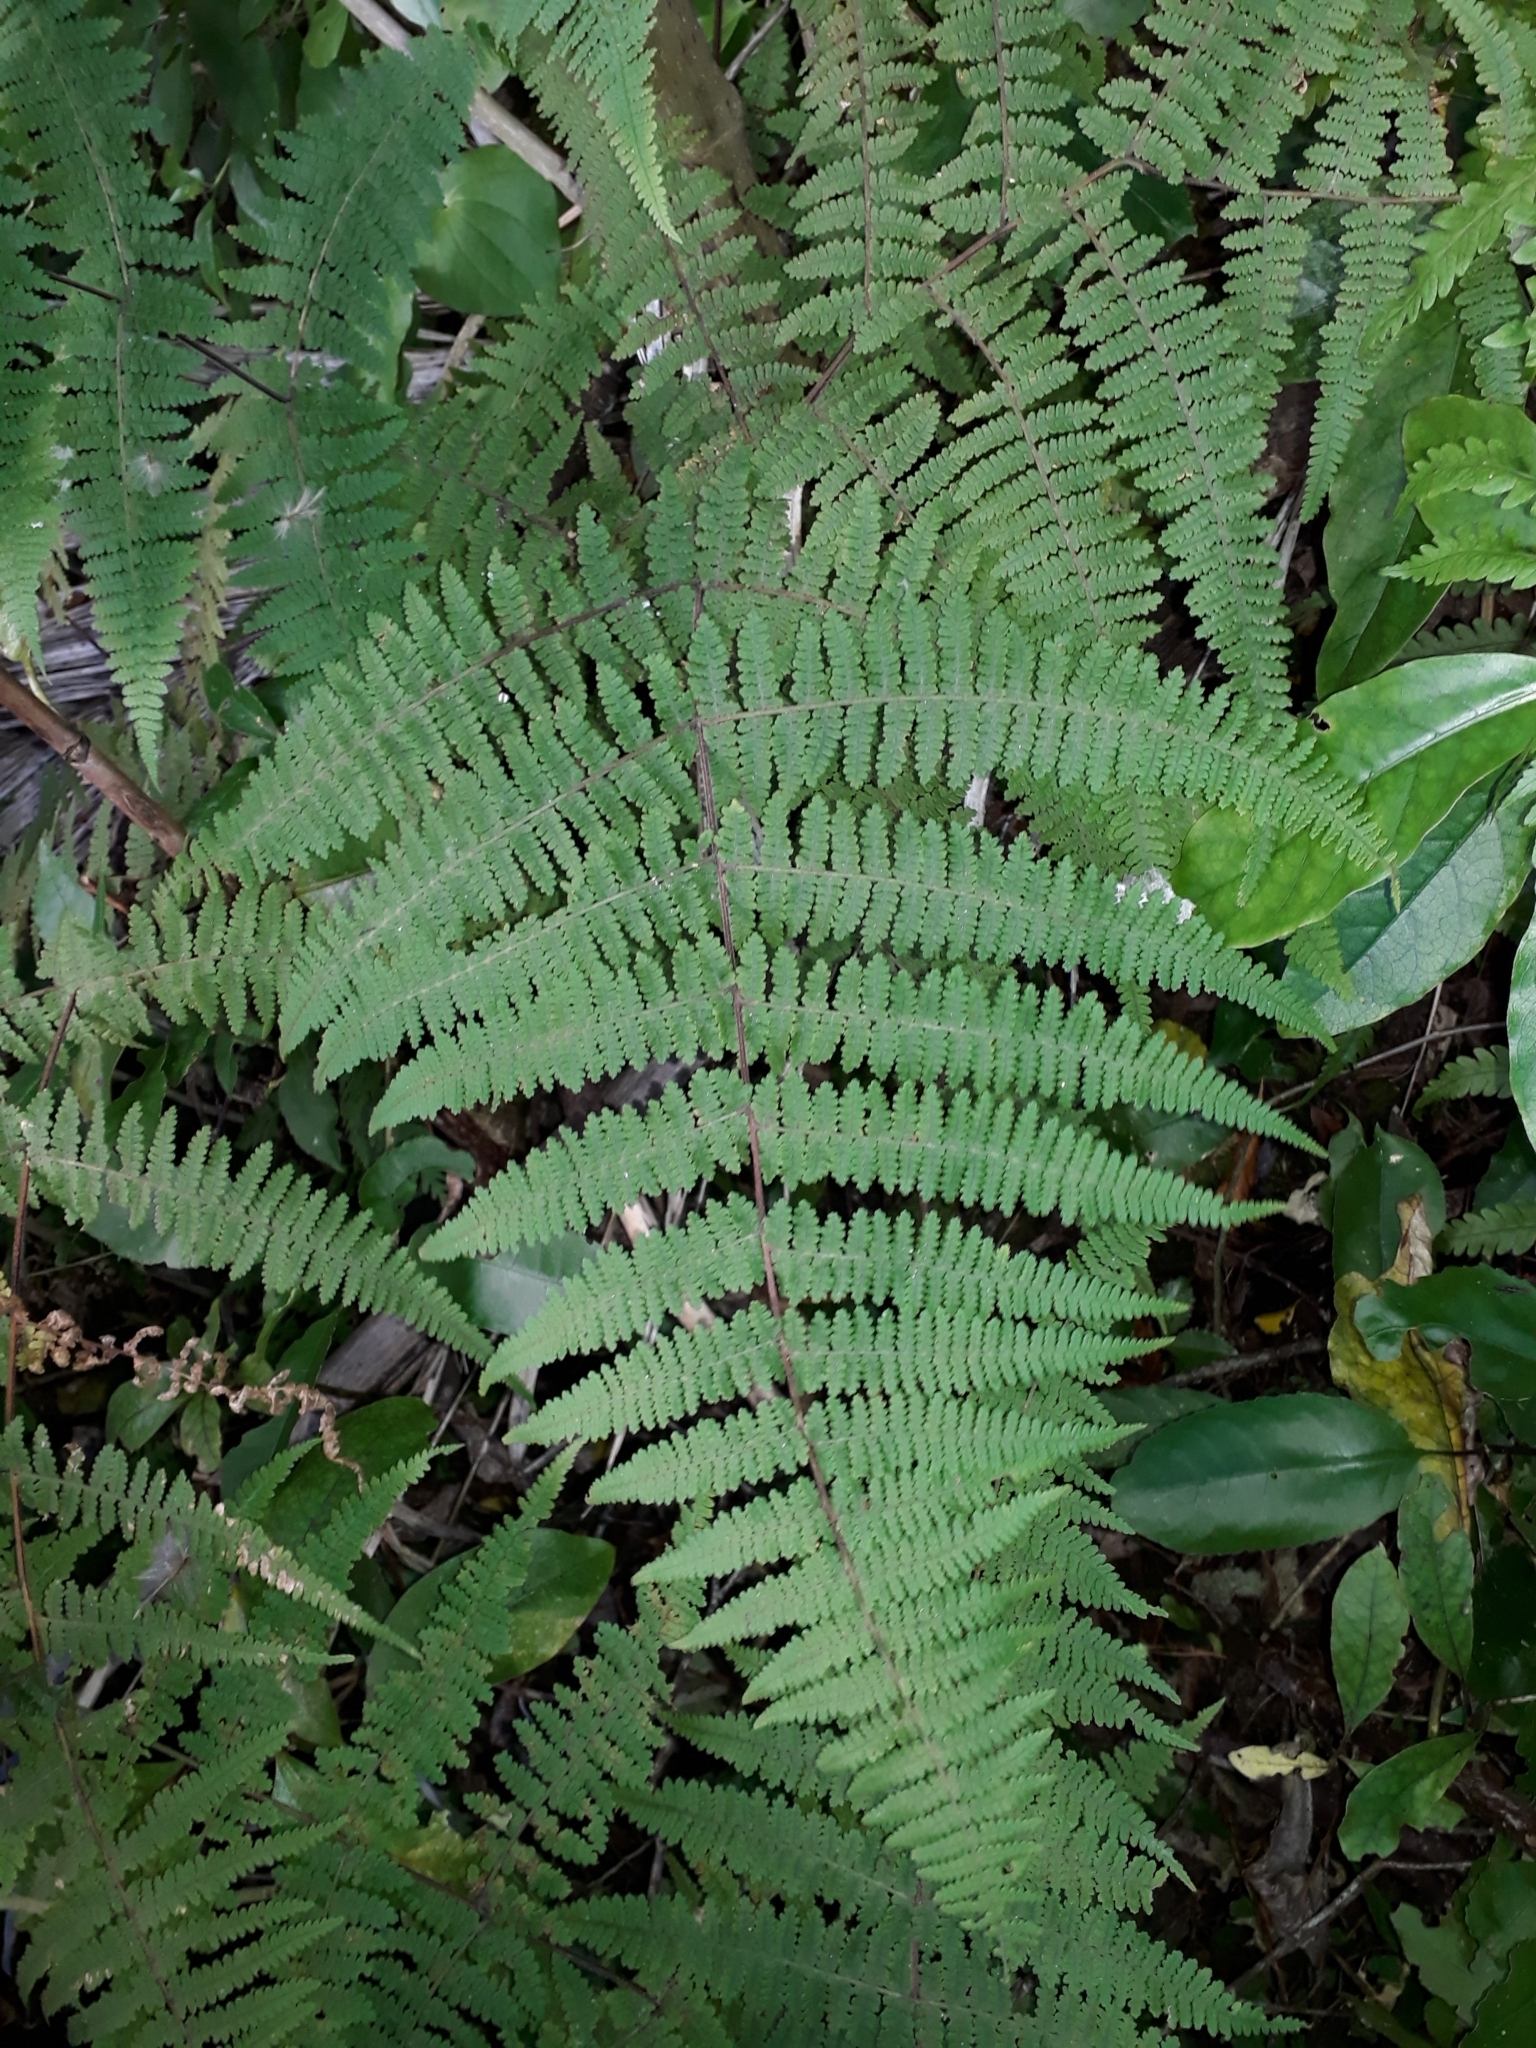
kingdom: Plantae
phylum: Tracheophyta
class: Polypodiopsida
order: Polypodiales
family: Dennstaedtiaceae
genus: Hypolepis
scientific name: Hypolepis rugosula
